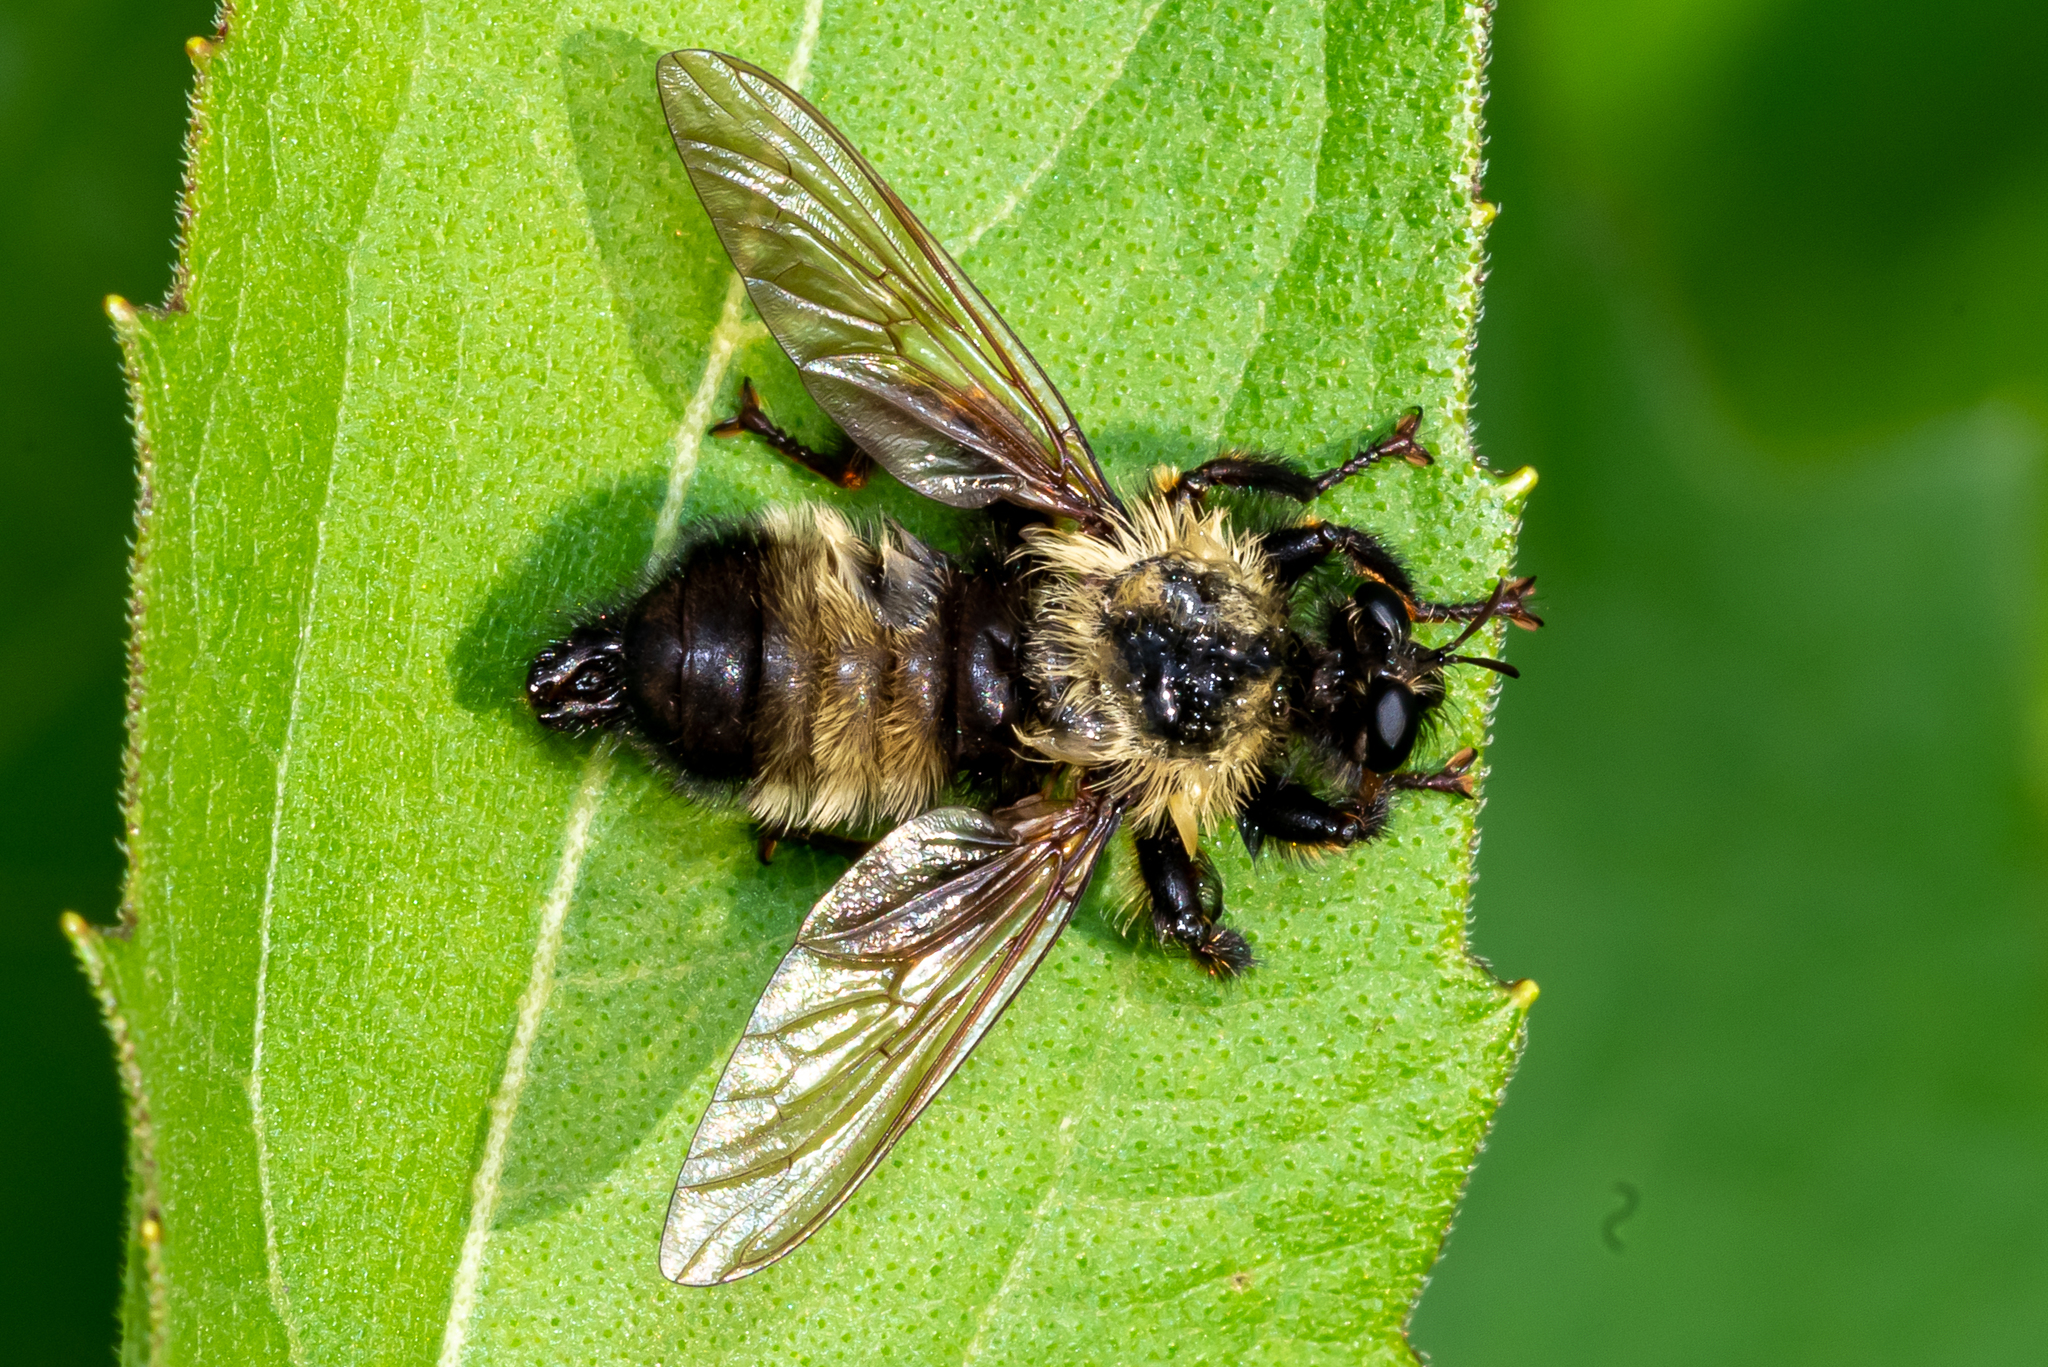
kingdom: Animalia
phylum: Arthropoda
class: Insecta
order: Diptera
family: Asilidae
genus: Laphria
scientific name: Laphria thoracica
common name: Bumble bee mimic robber fly
